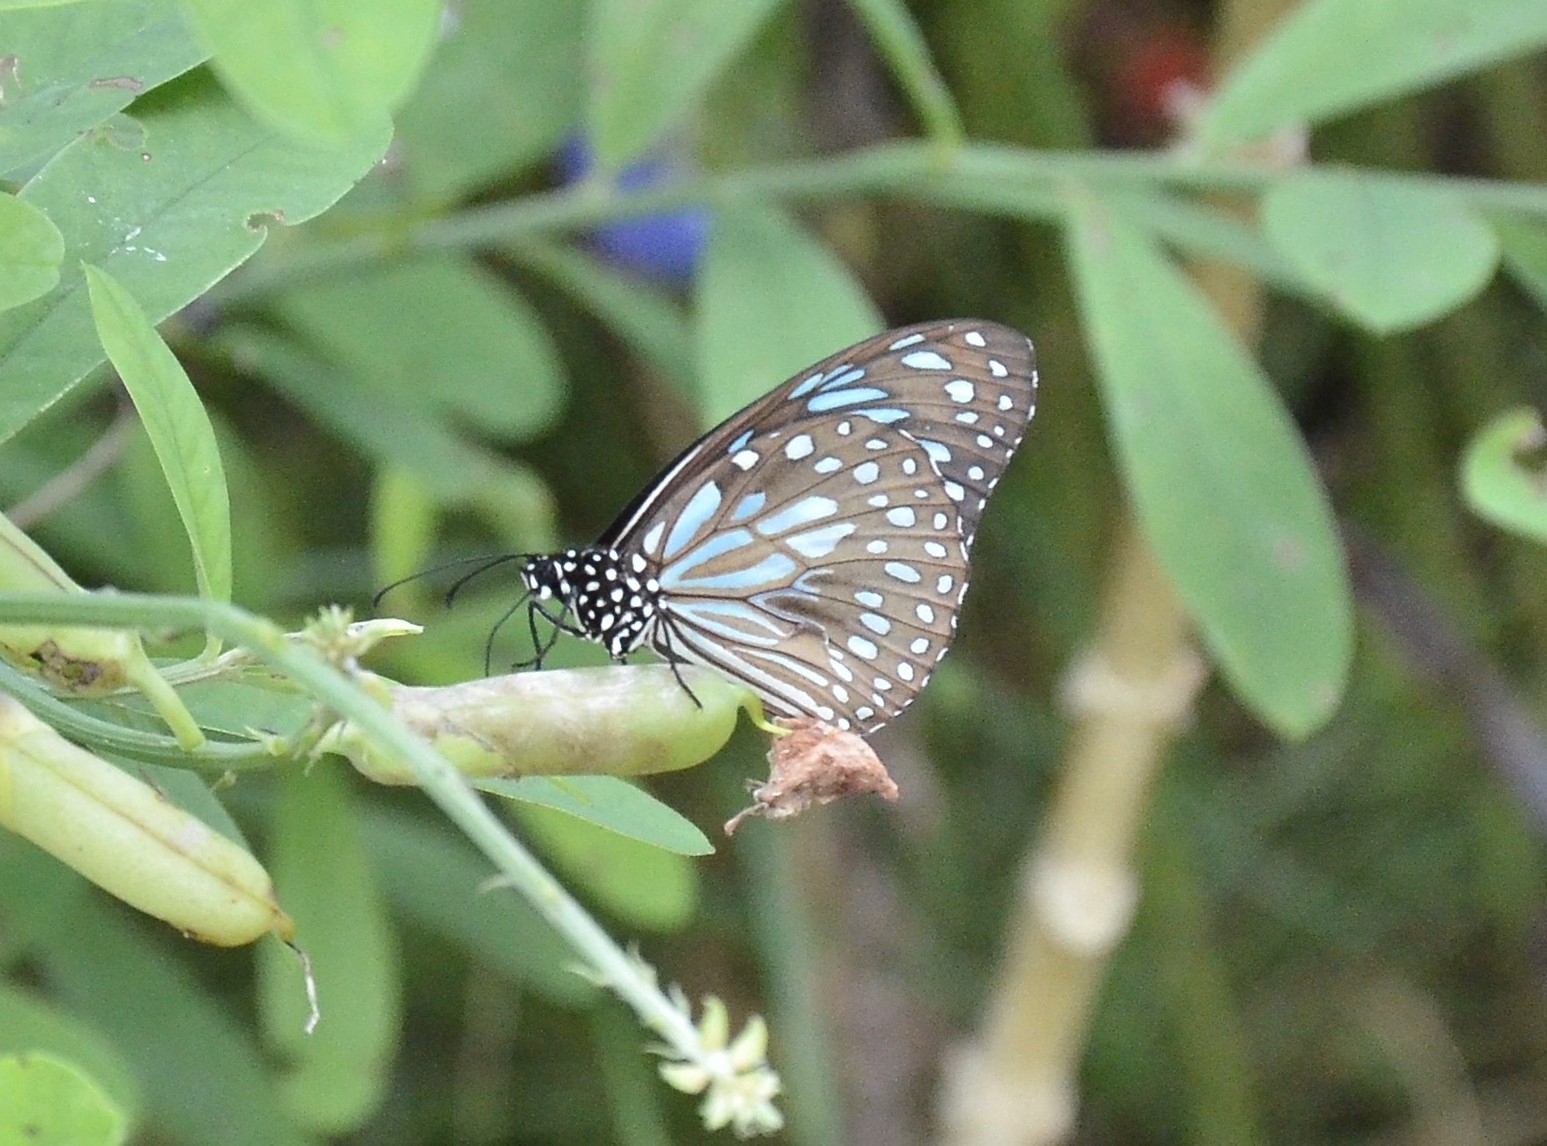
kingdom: Animalia
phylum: Arthropoda
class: Insecta
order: Lepidoptera
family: Nymphalidae
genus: Tirumala
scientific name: Tirumala septentrionis
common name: Dark blue tiger butterfly
